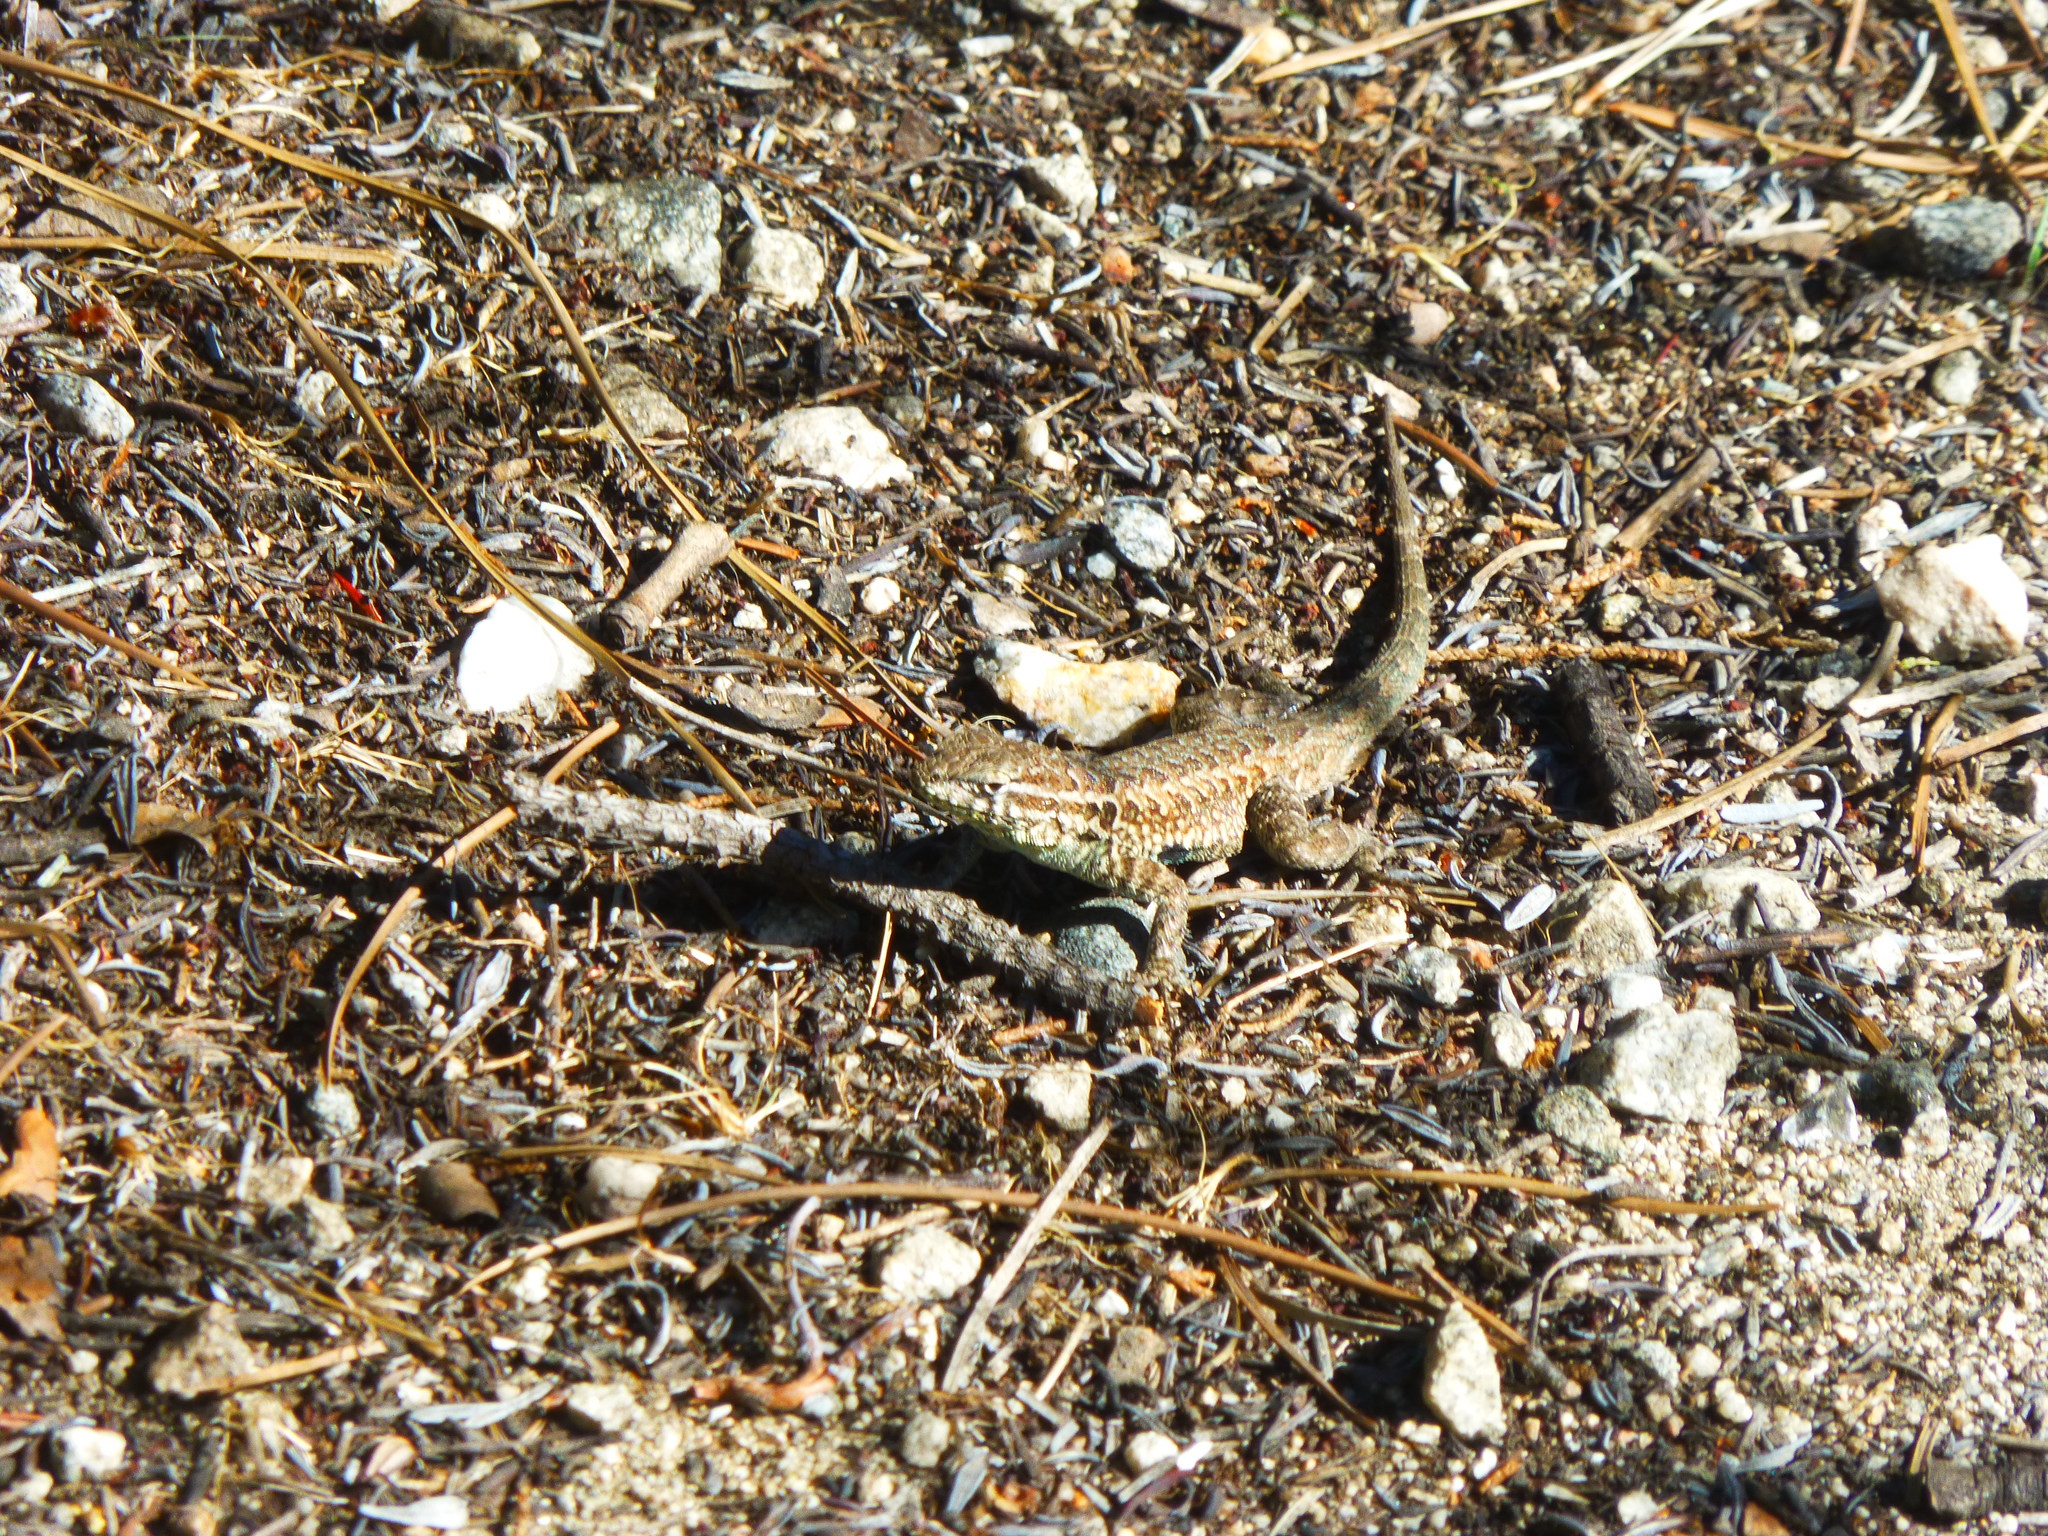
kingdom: Animalia
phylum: Chordata
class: Squamata
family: Phrynosomatidae
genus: Uta
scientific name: Uta stansburiana
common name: Side-blotched lizard
